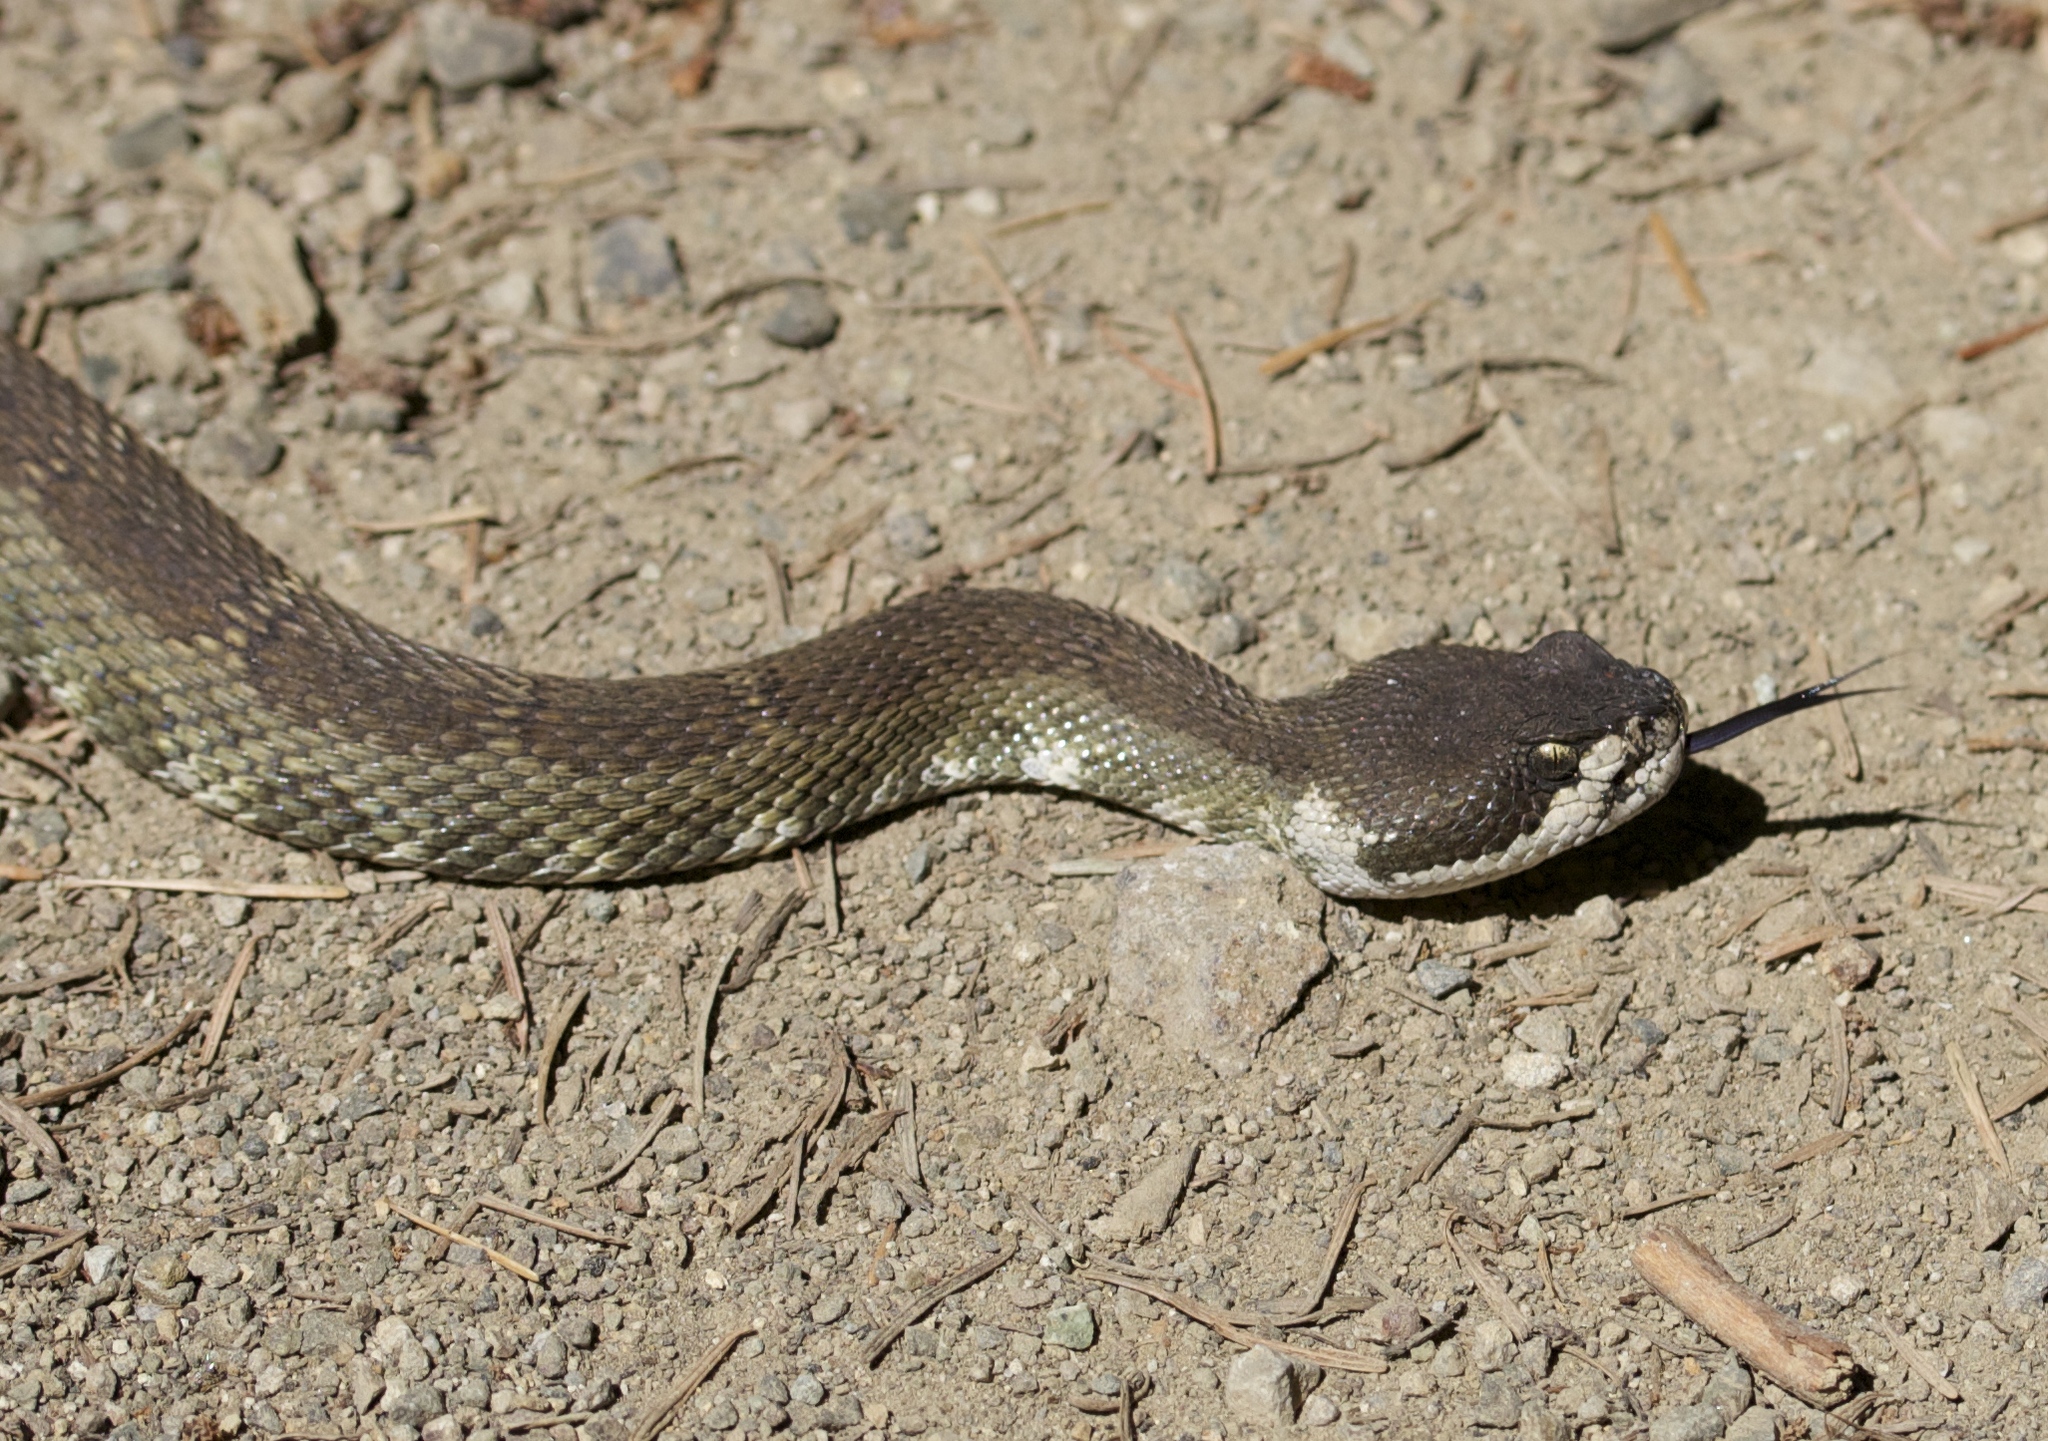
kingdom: Animalia
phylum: Chordata
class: Squamata
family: Viperidae
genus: Crotalus
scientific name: Crotalus oreganus
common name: Abyssus
